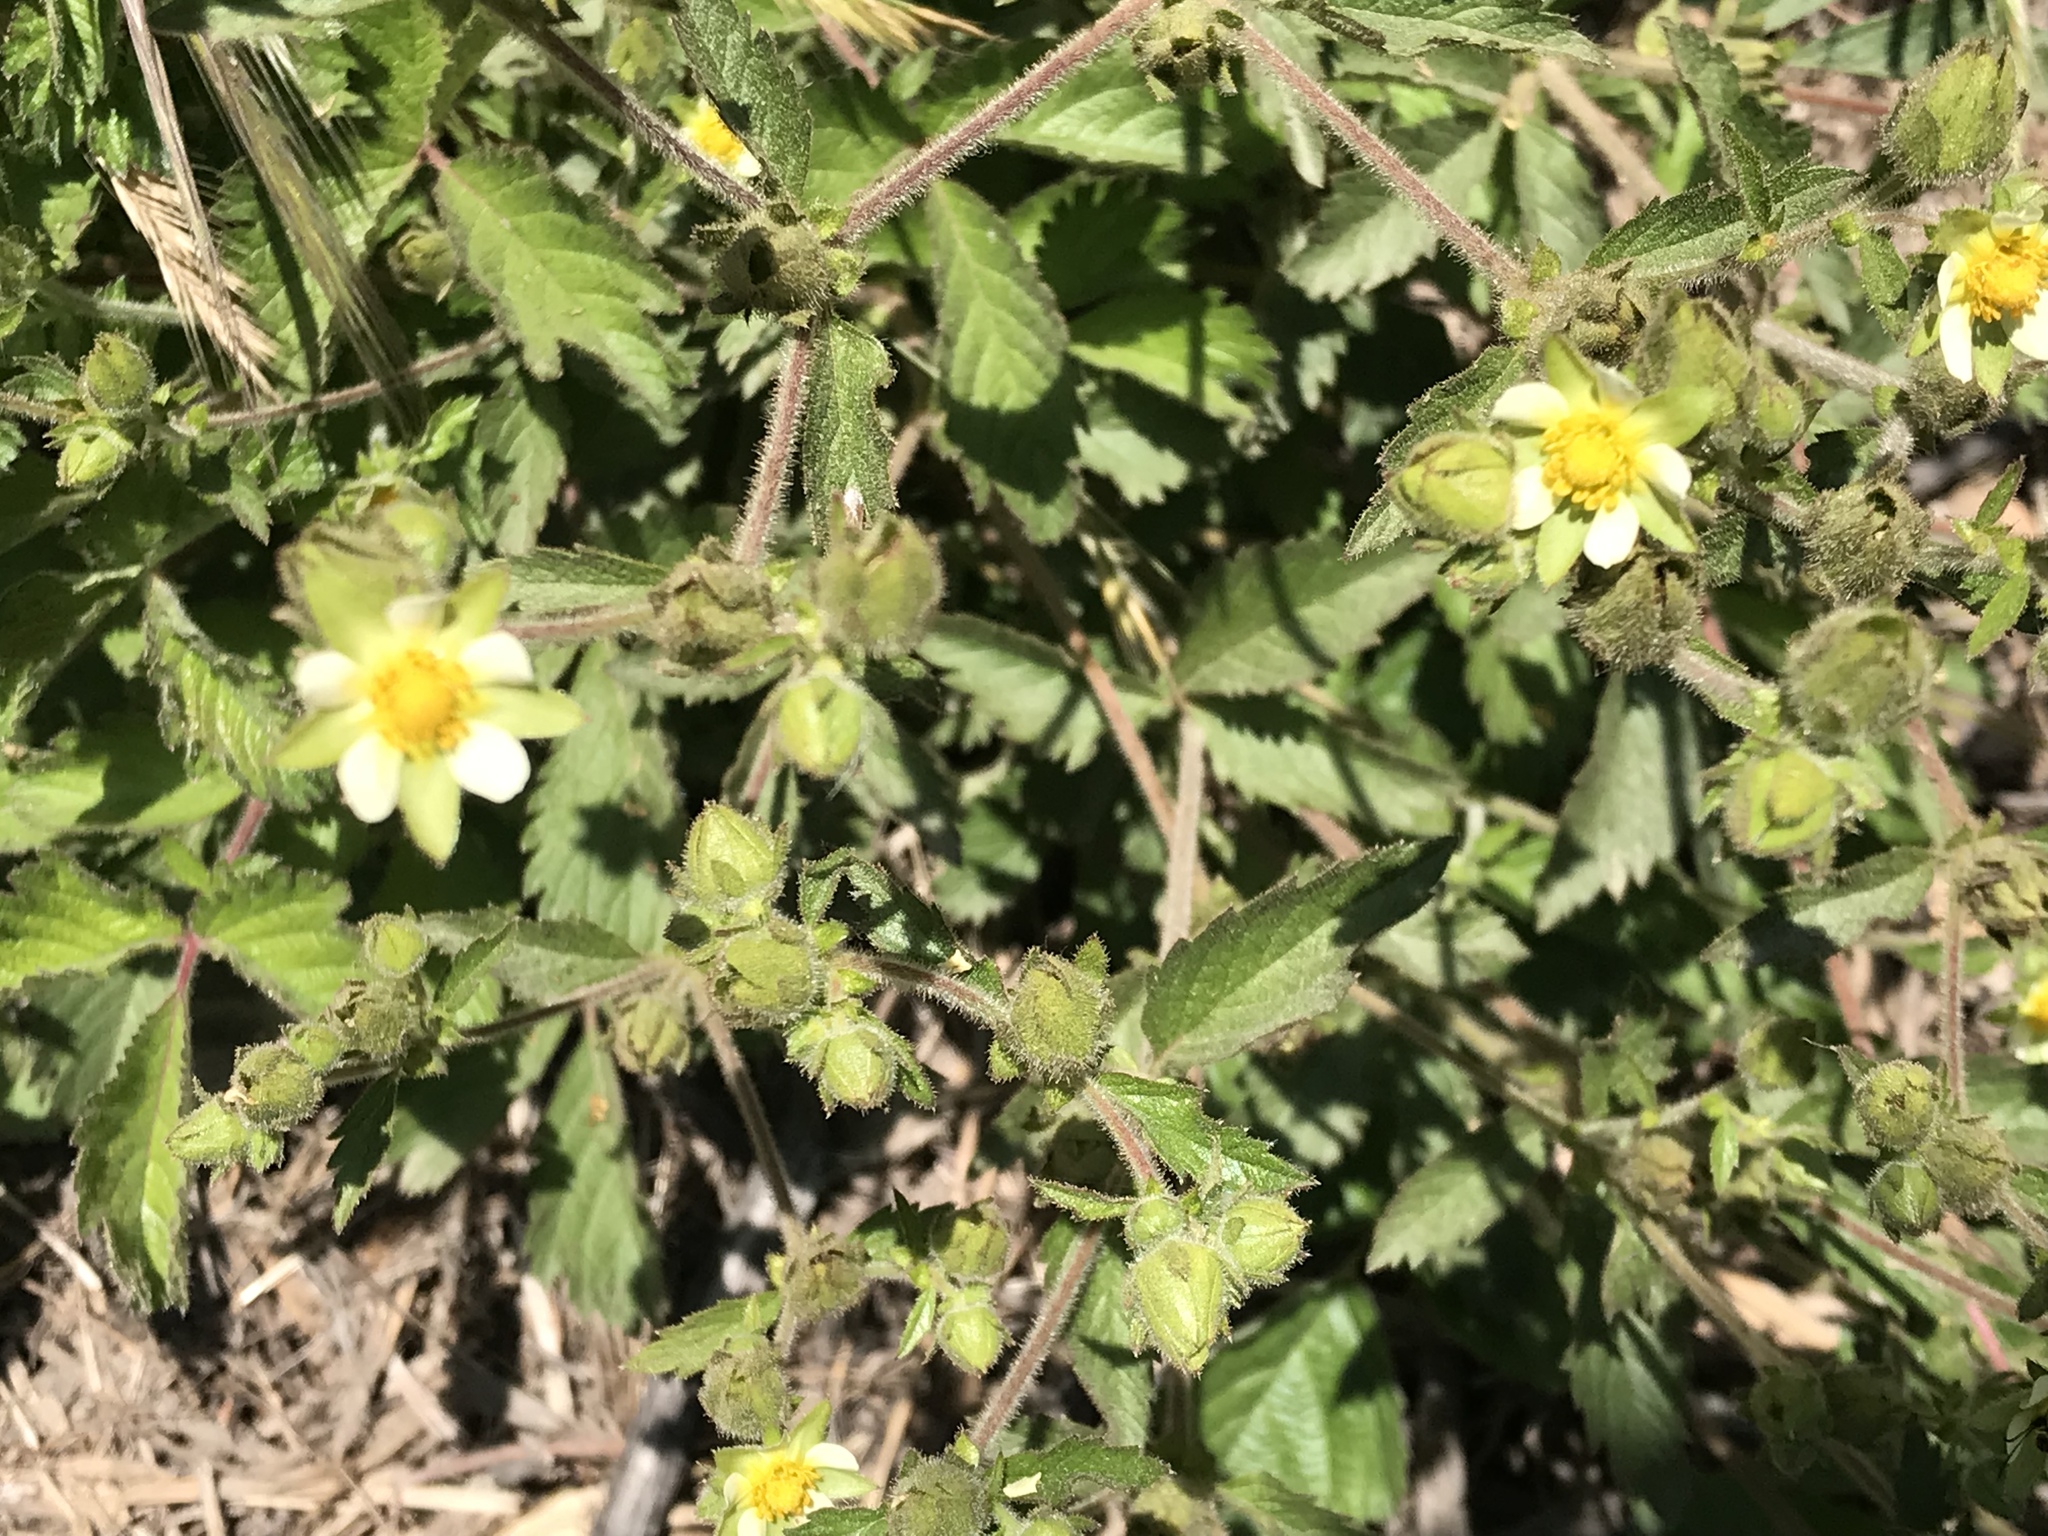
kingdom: Plantae
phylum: Tracheophyta
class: Magnoliopsida
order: Rosales
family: Rosaceae
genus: Drymocallis
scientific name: Drymocallis glandulosa
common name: Sticky cinquefoil
